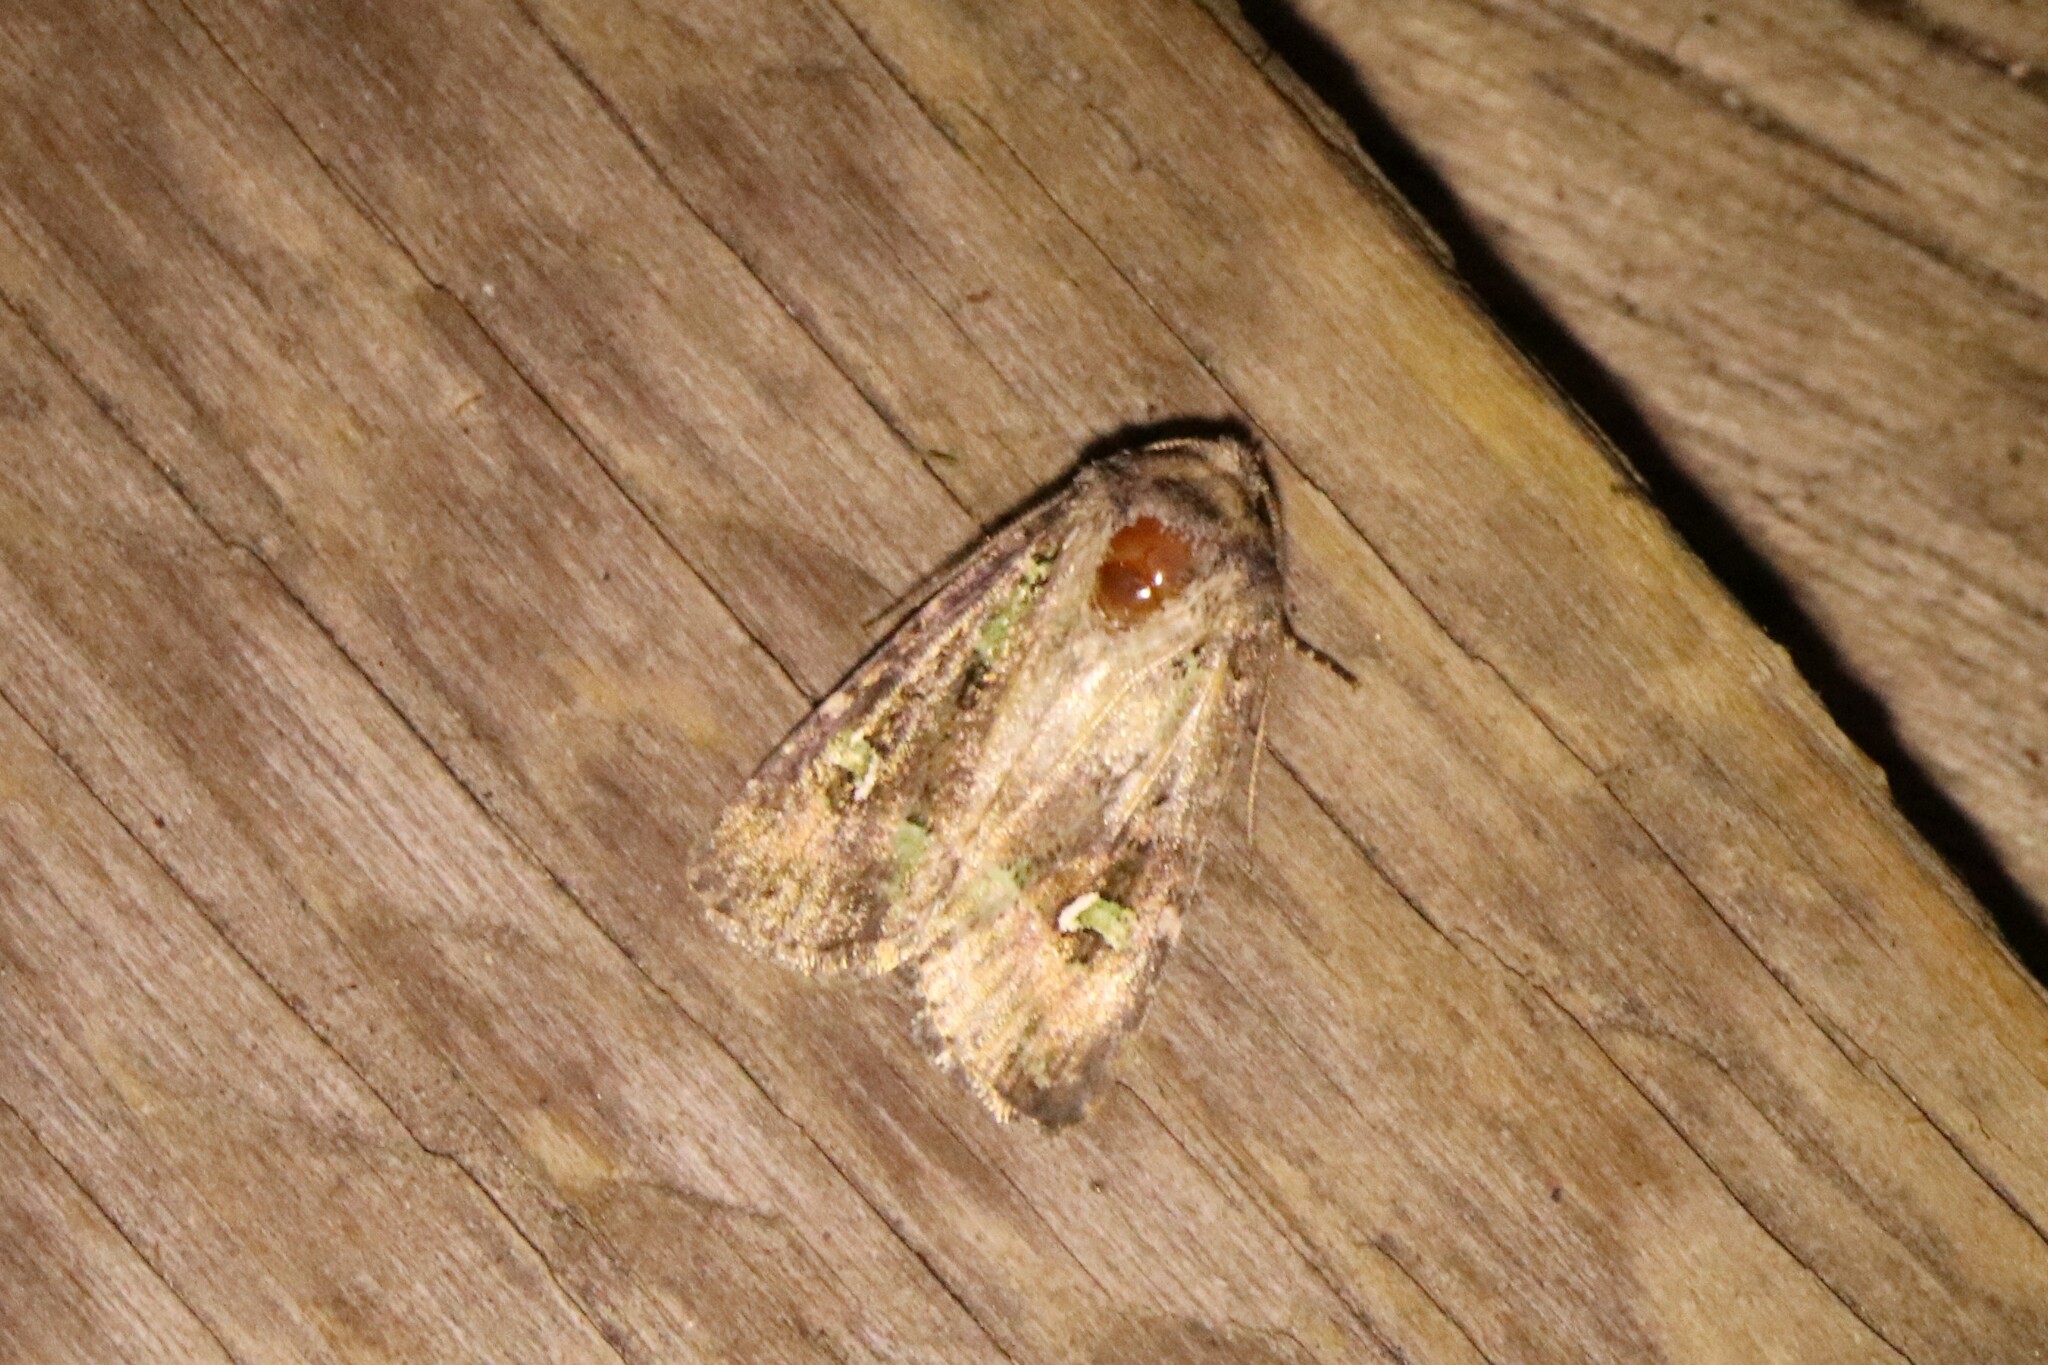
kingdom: Animalia
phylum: Arthropoda
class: Insecta
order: Lepidoptera
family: Noctuidae
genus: Lacinipolia
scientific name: Lacinipolia renigera
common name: Kidney-spotted minor
